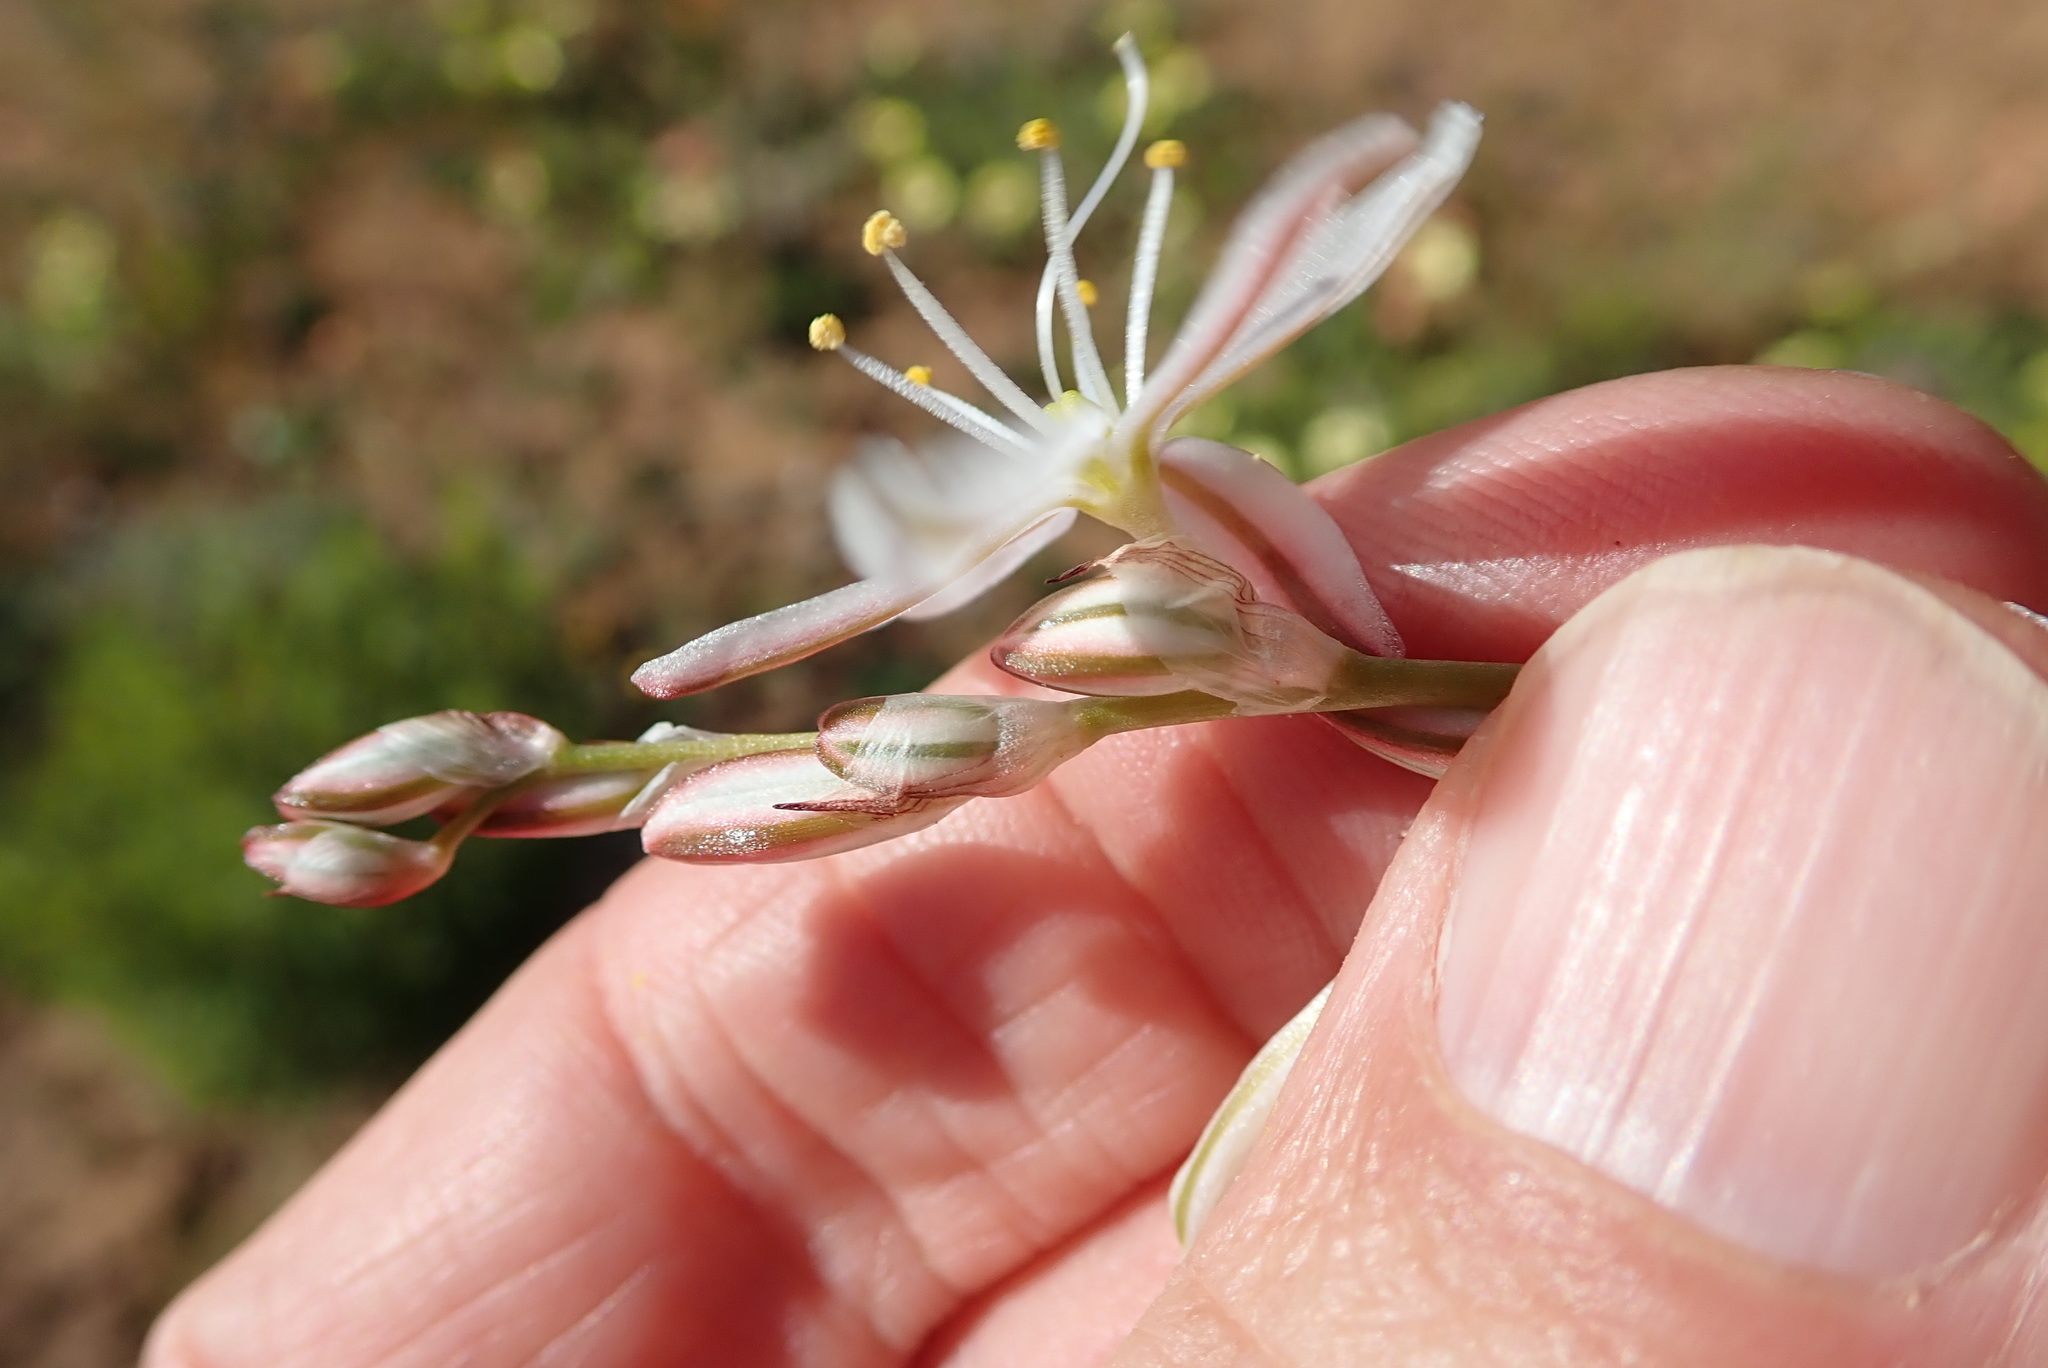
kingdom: Plantae
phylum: Tracheophyta
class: Liliopsida
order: Asparagales
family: Asparagaceae
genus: Chlorophytum
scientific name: Chlorophytum graminifolium
